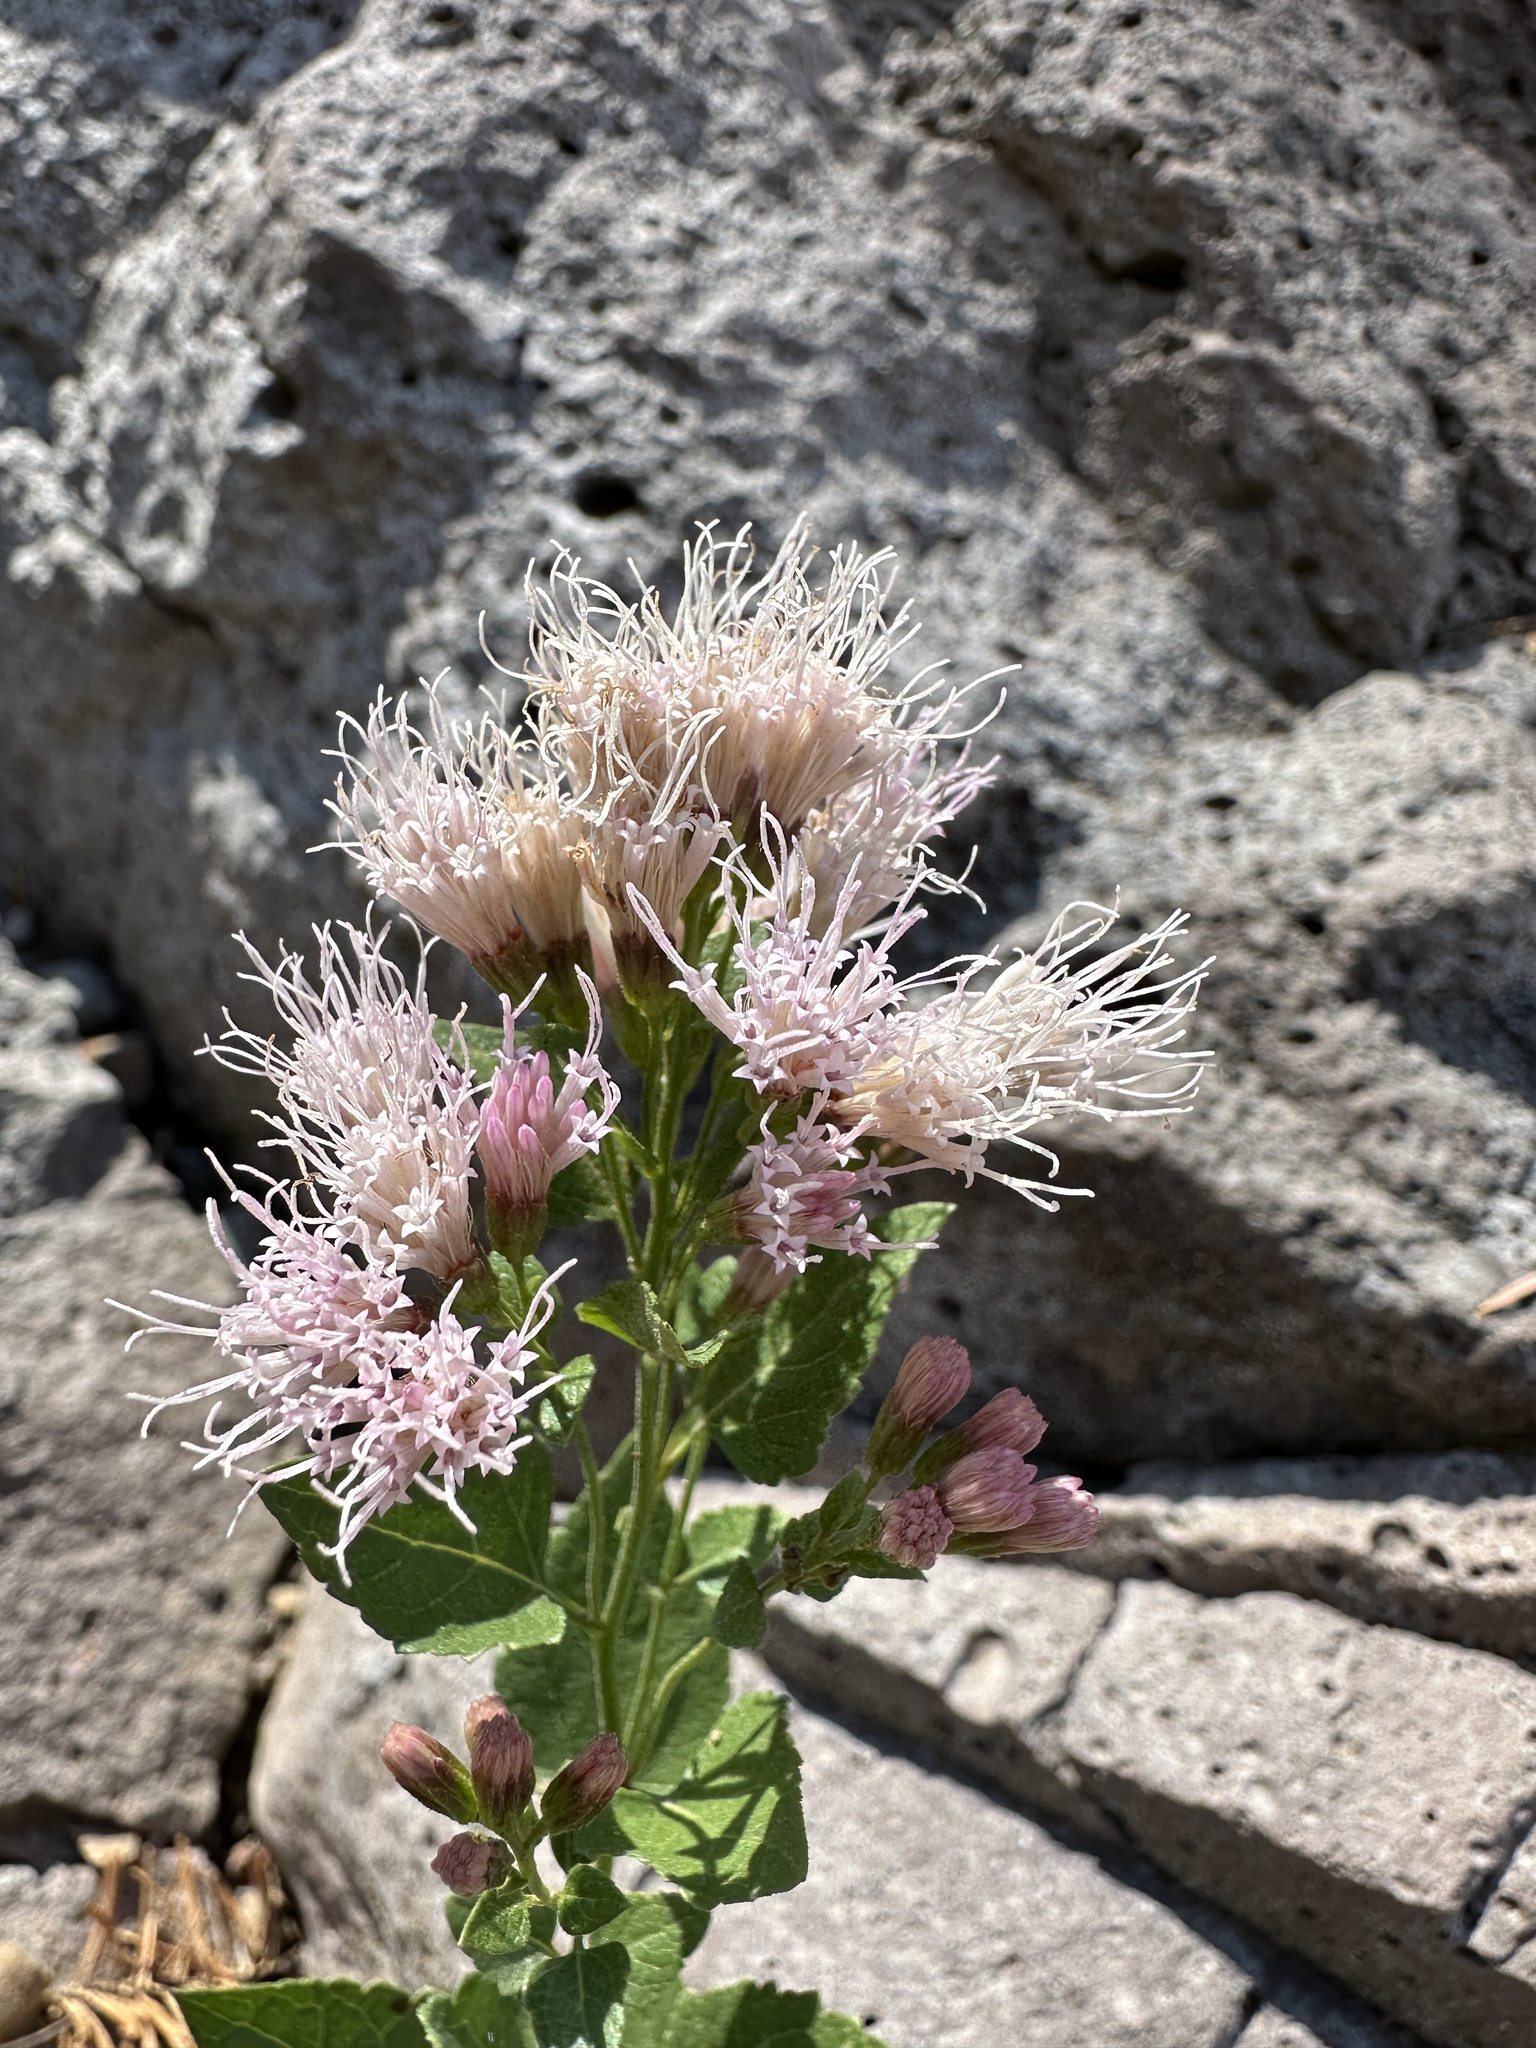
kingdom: Plantae
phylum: Tracheophyta
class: Magnoliopsida
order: Asterales
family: Asteraceae
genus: Ageratina
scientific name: Ageratina occidentalis
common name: Western snakeroot
